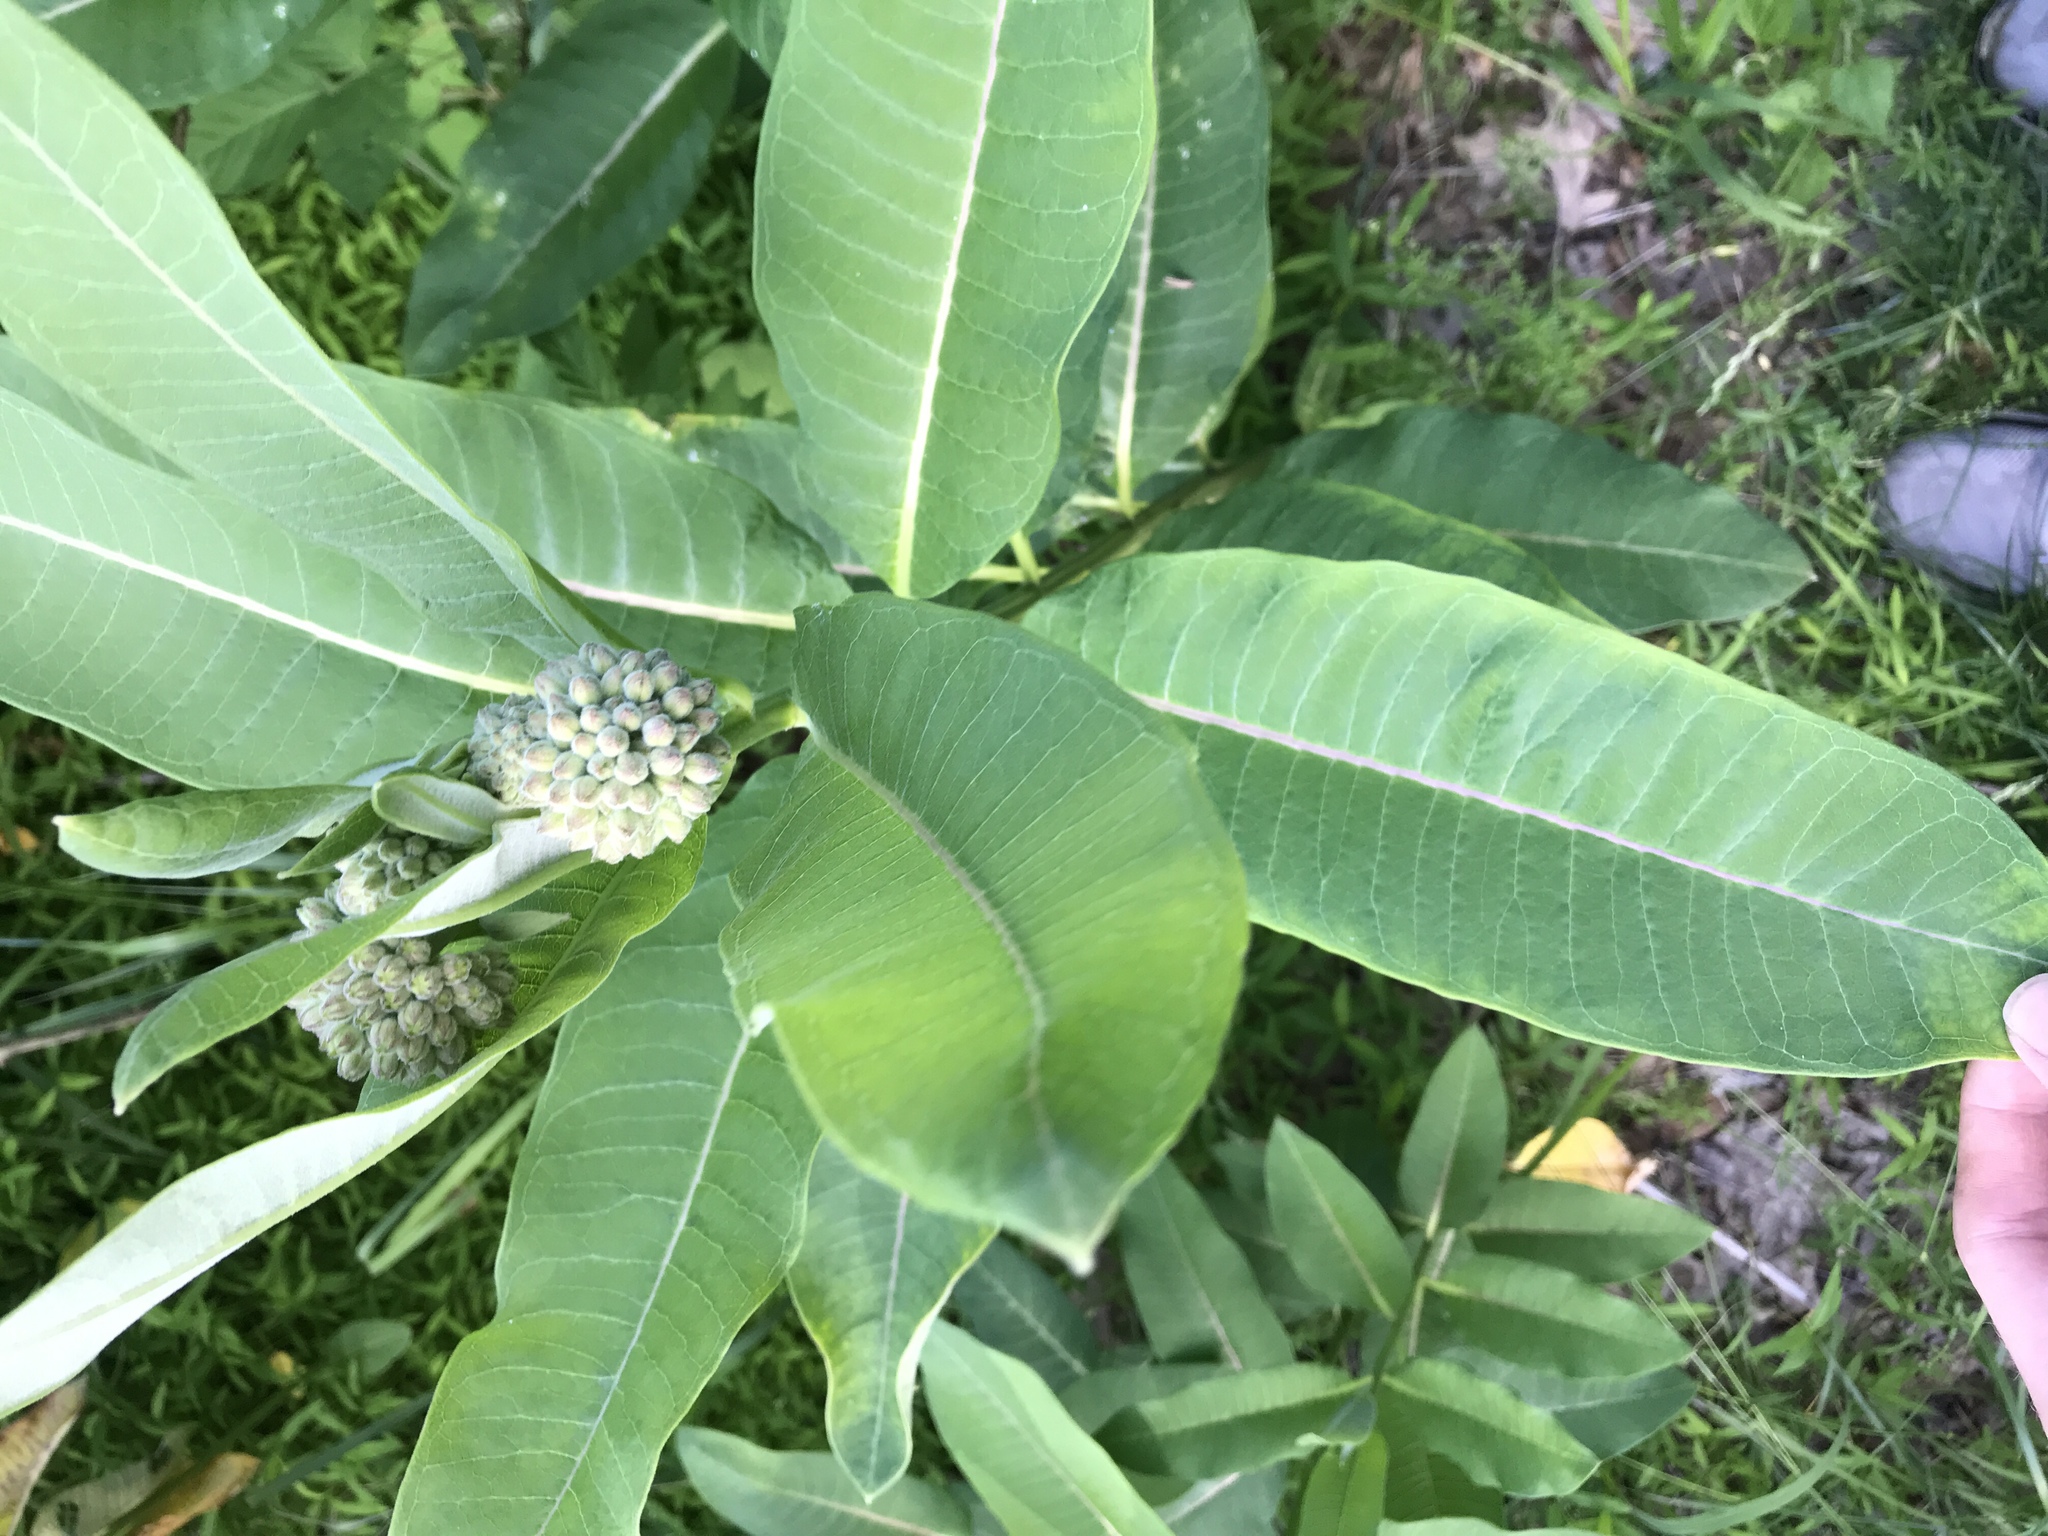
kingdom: Plantae
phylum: Tracheophyta
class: Magnoliopsida
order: Gentianales
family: Apocynaceae
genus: Asclepias
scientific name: Asclepias syriaca
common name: Common milkweed
